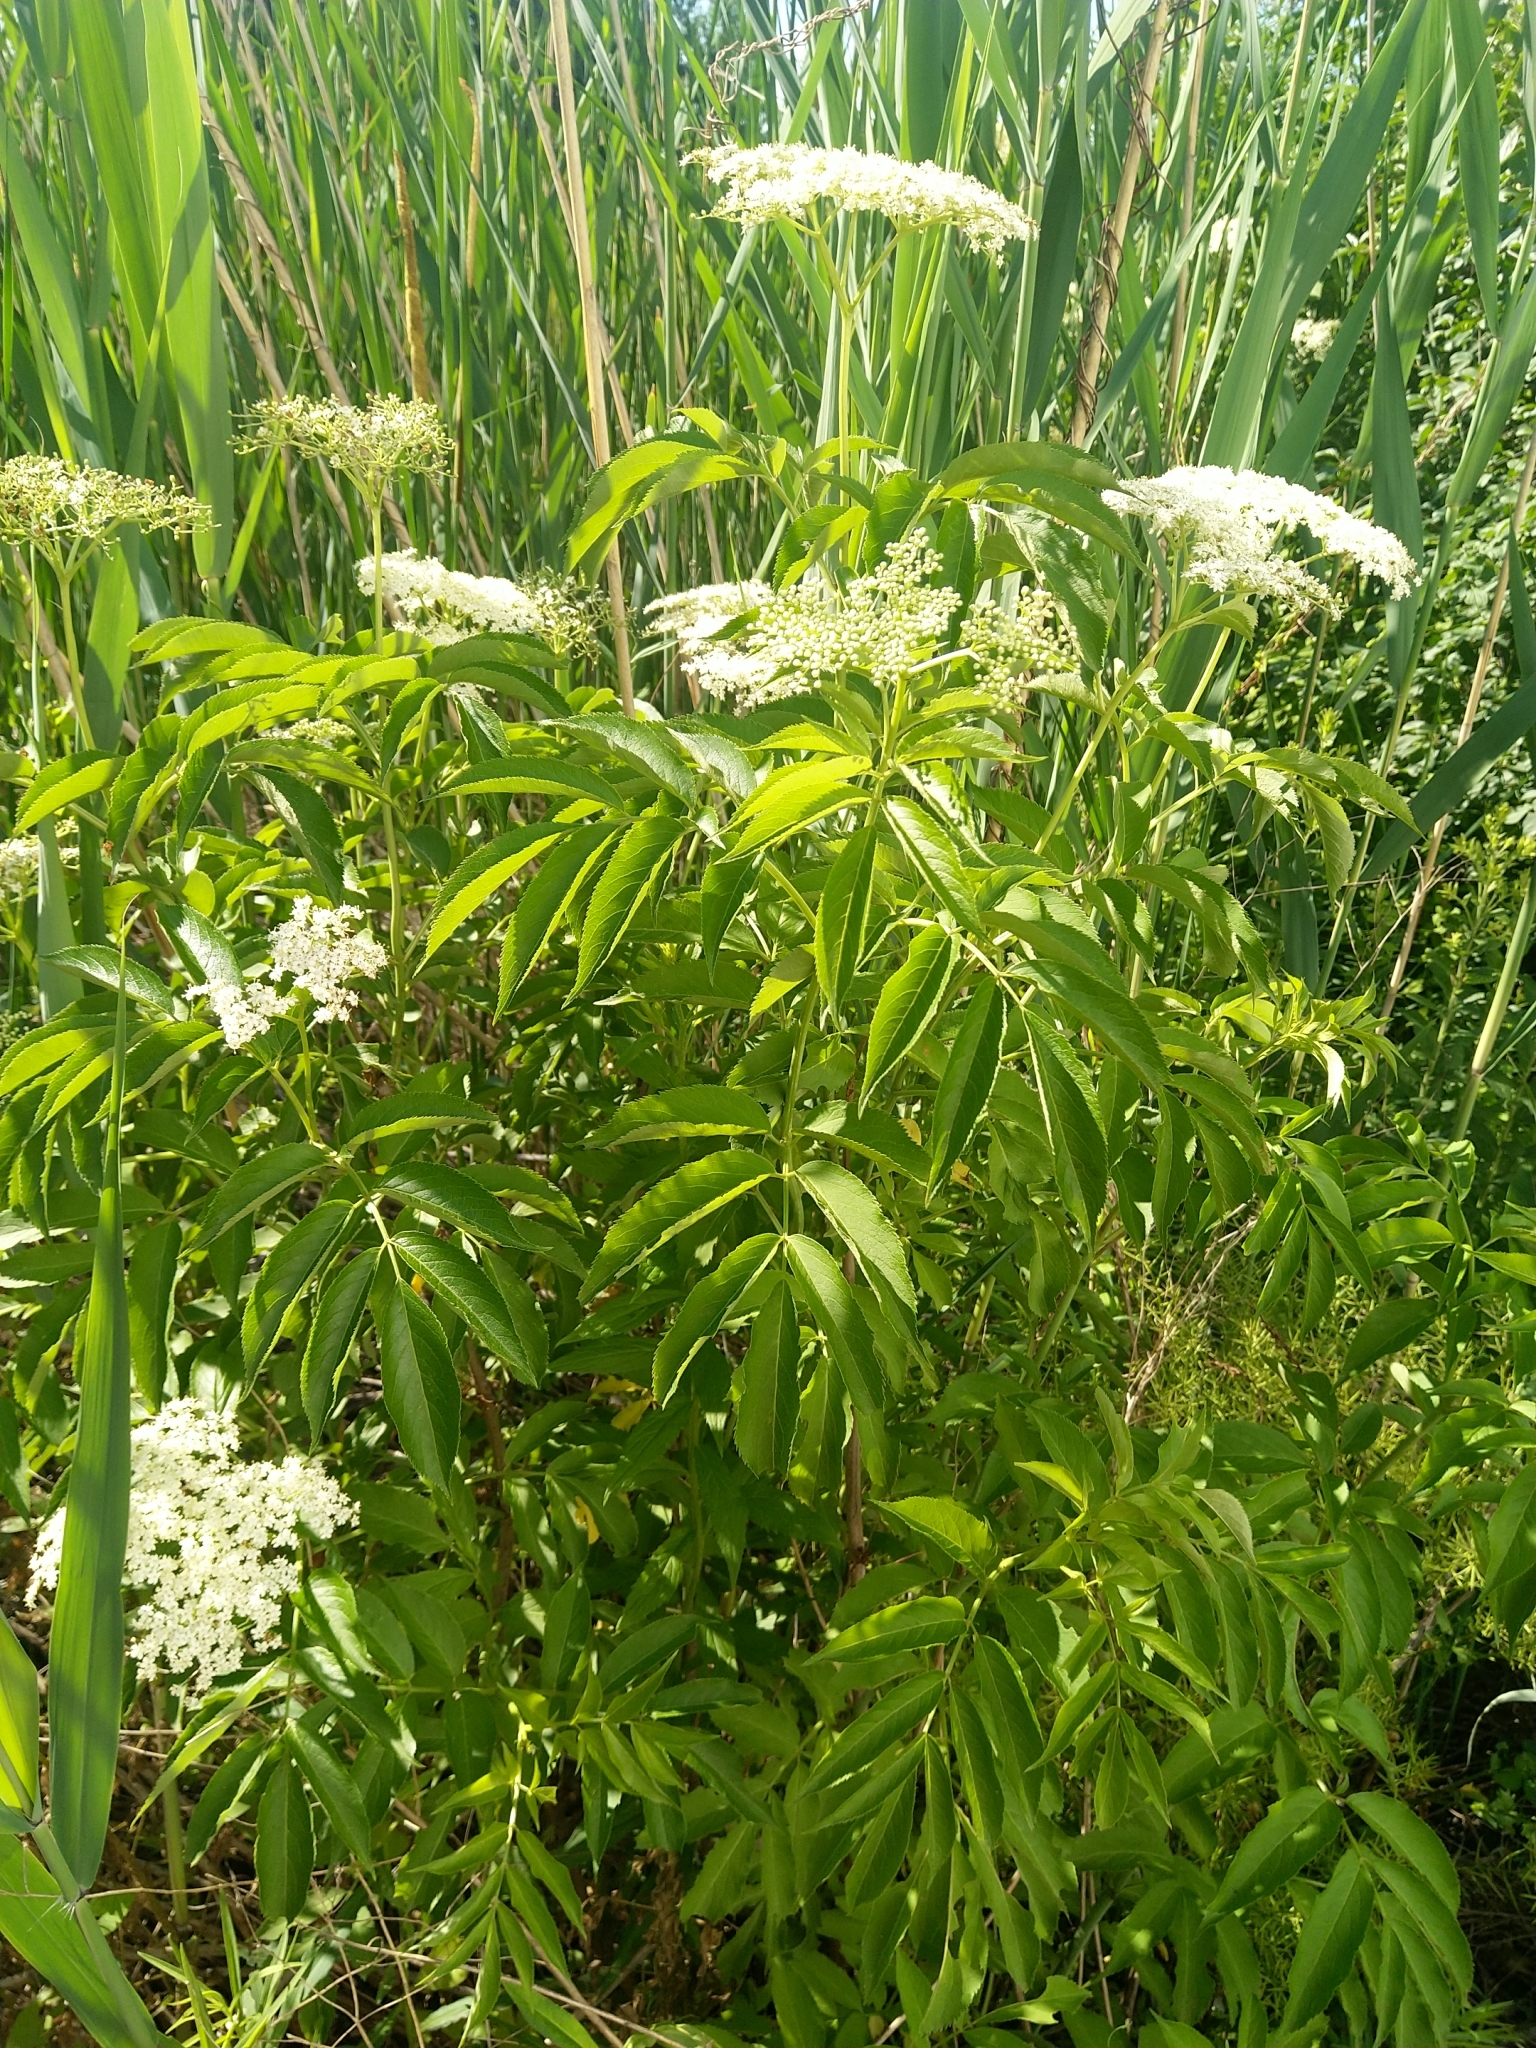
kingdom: Plantae
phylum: Tracheophyta
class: Magnoliopsida
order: Dipsacales
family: Viburnaceae
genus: Sambucus
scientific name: Sambucus canadensis
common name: American elder
